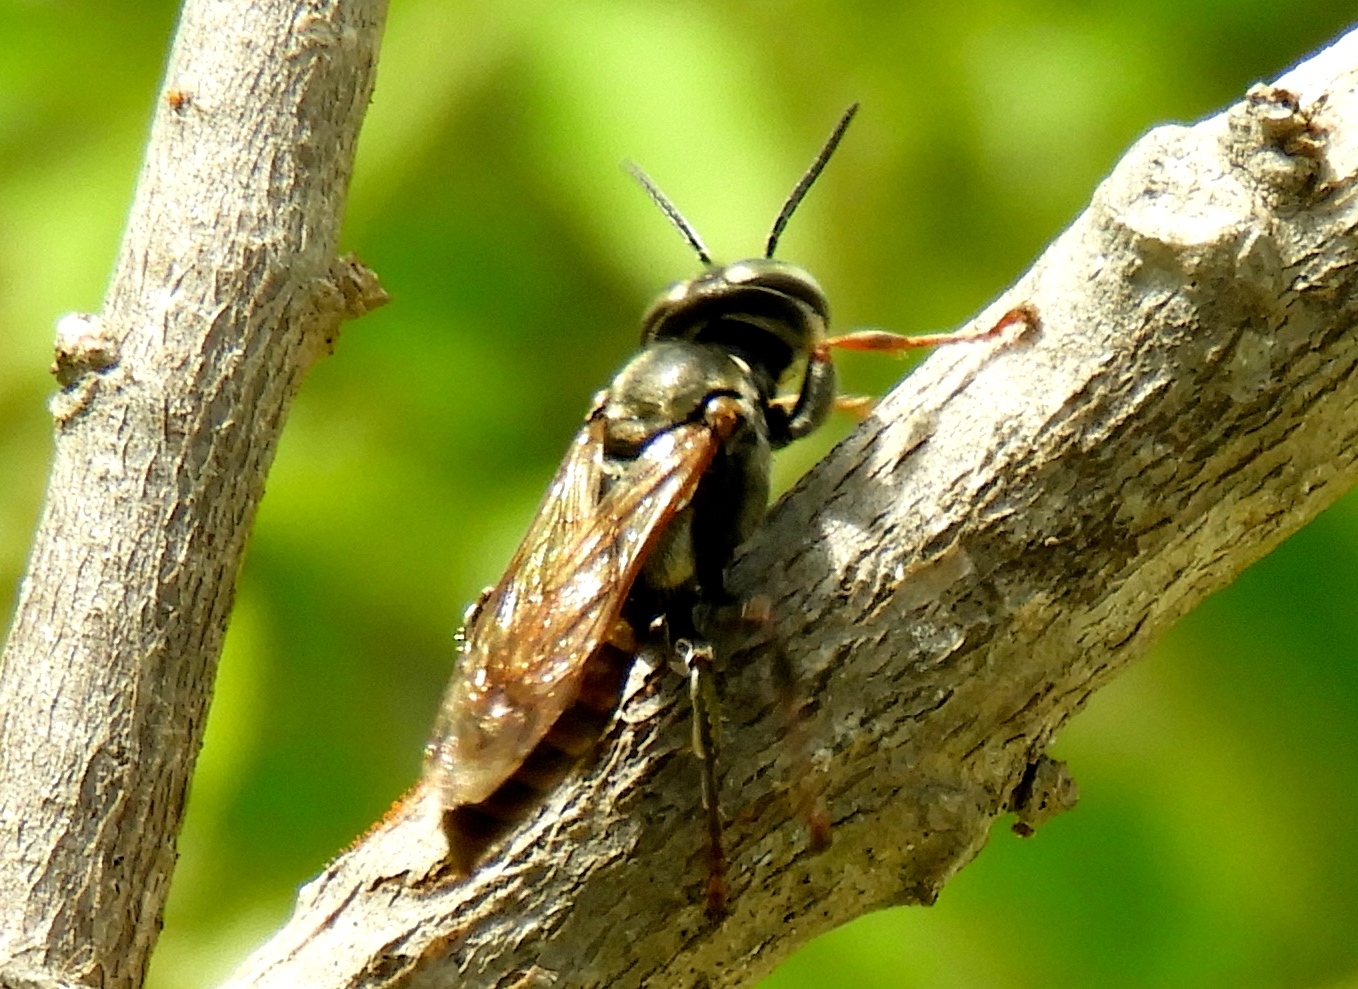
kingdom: Animalia
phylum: Arthropoda
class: Insecta
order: Hymenoptera
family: Crabronidae
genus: Tachytes
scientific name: Tachytes
